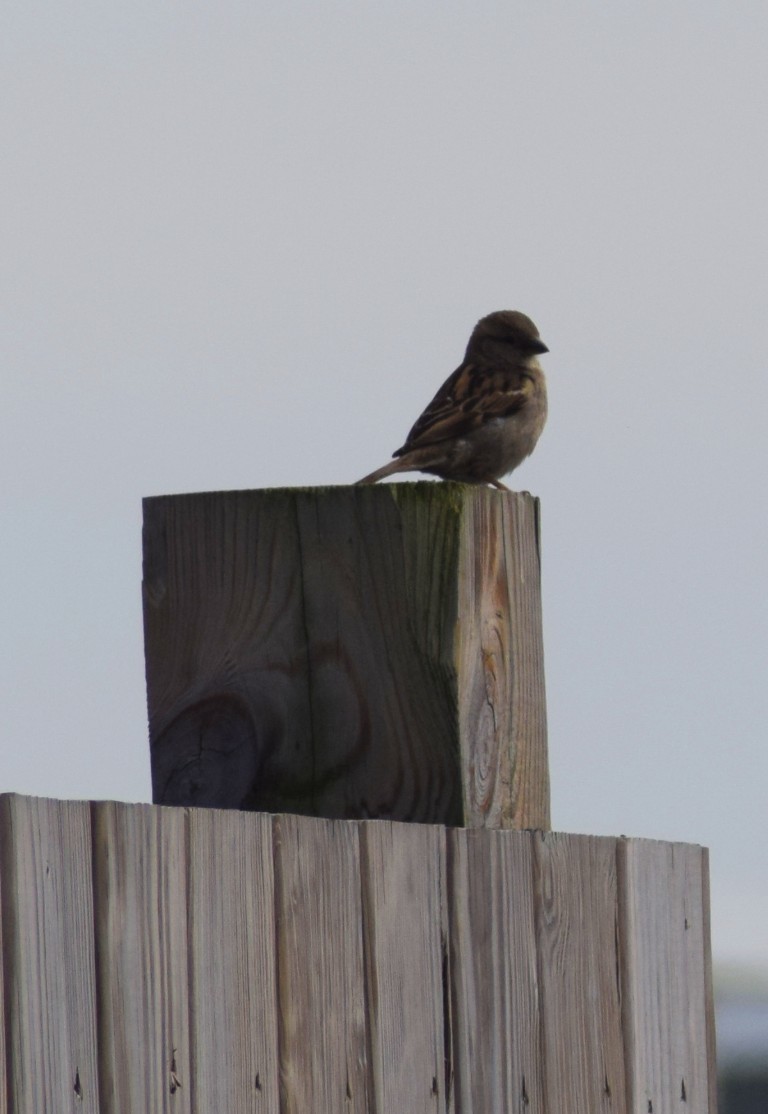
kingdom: Animalia
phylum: Chordata
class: Aves
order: Passeriformes
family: Passeridae
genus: Passer
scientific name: Passer domesticus
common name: House sparrow
